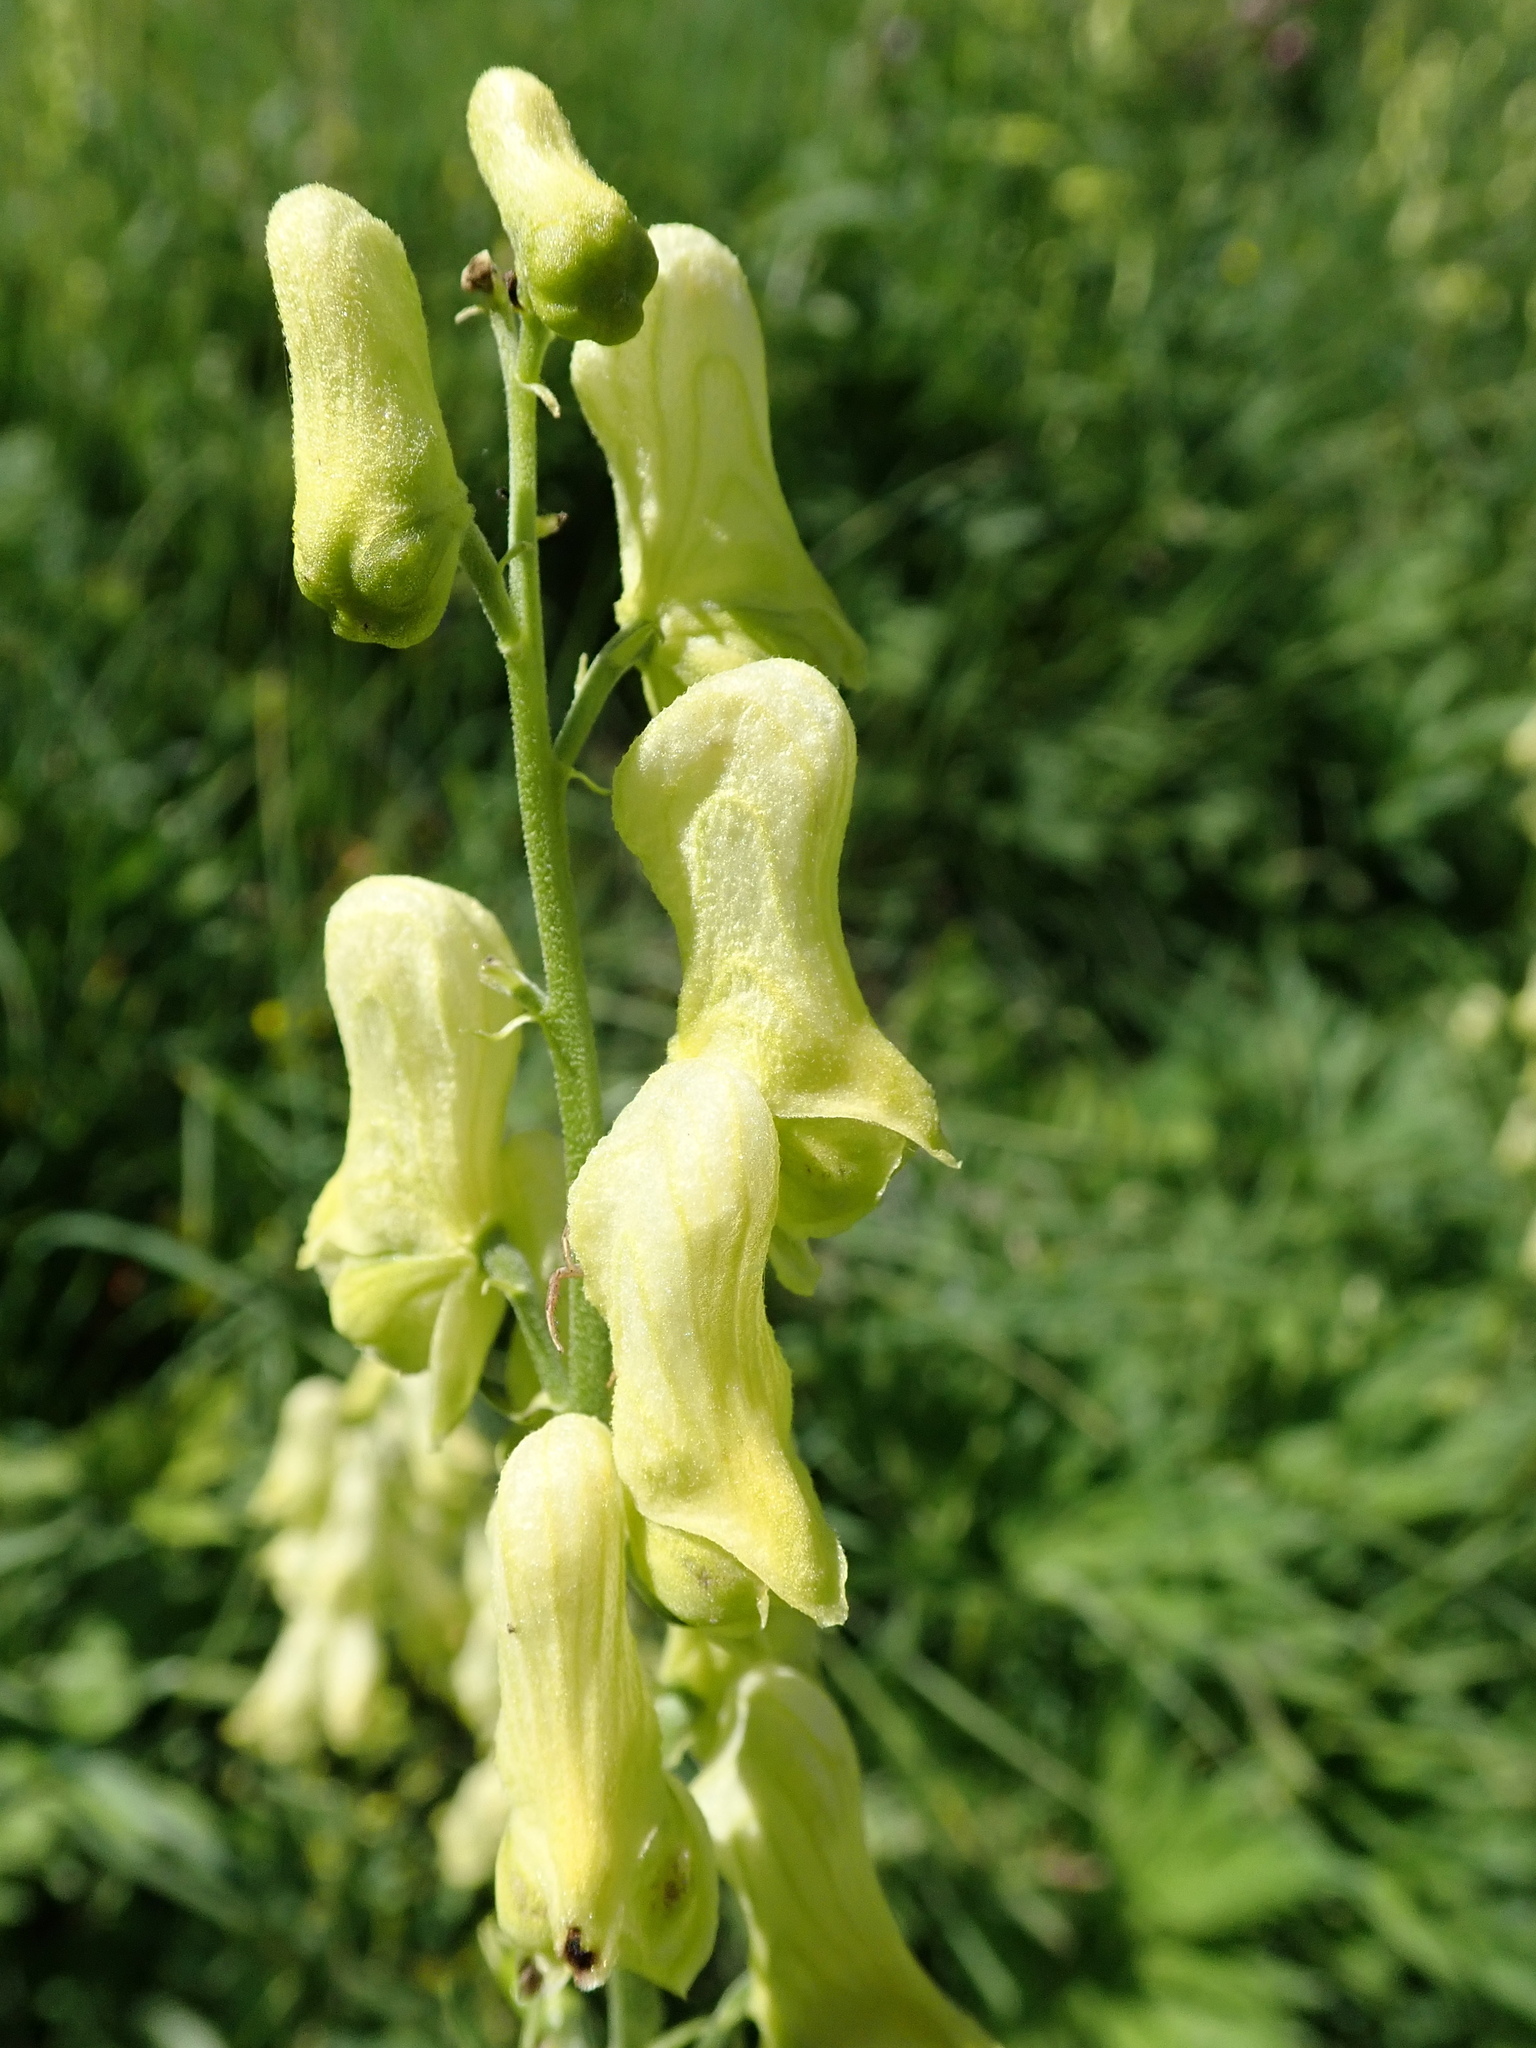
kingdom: Plantae
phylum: Tracheophyta
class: Magnoliopsida
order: Ranunculales
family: Ranunculaceae
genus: Aconitum
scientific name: Aconitum lycoctonum
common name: Wolf's-bane
